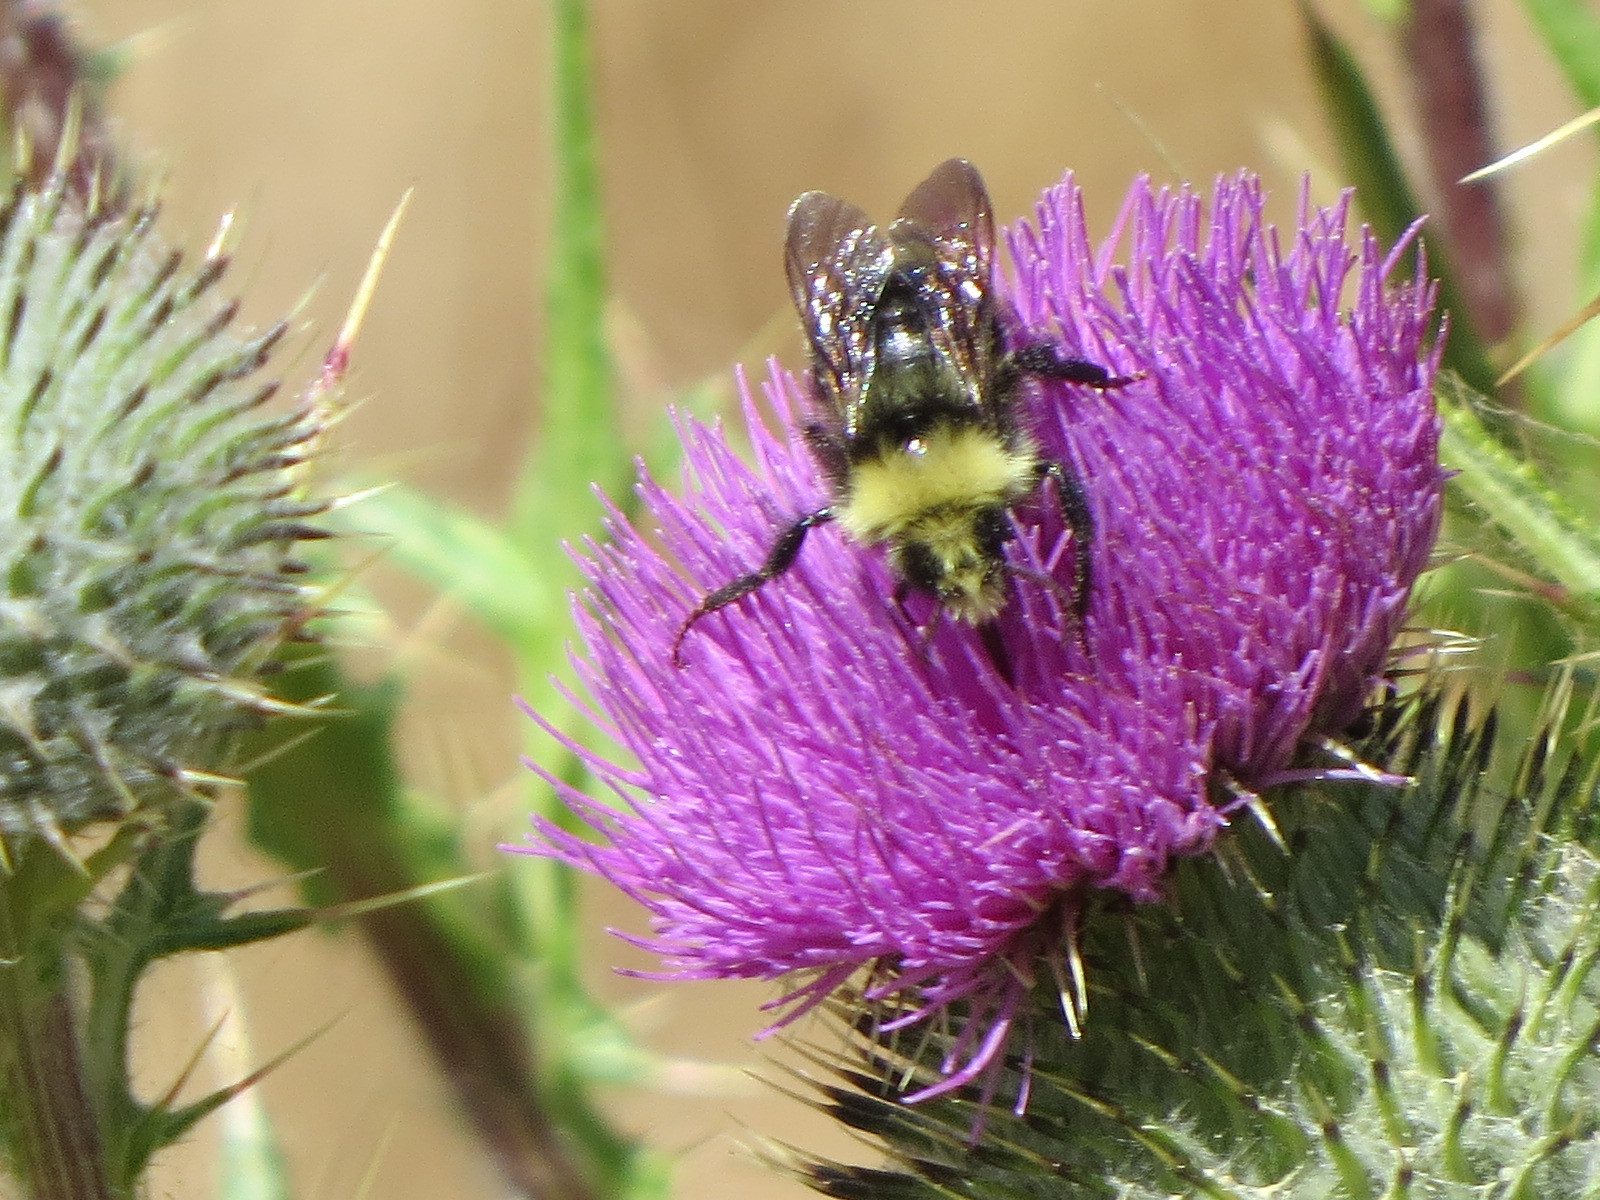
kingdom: Animalia
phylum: Arthropoda
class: Insecta
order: Hymenoptera
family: Apidae
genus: Bombus
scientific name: Bombus vosnesenskii
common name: Vosnesensky bumble bee
